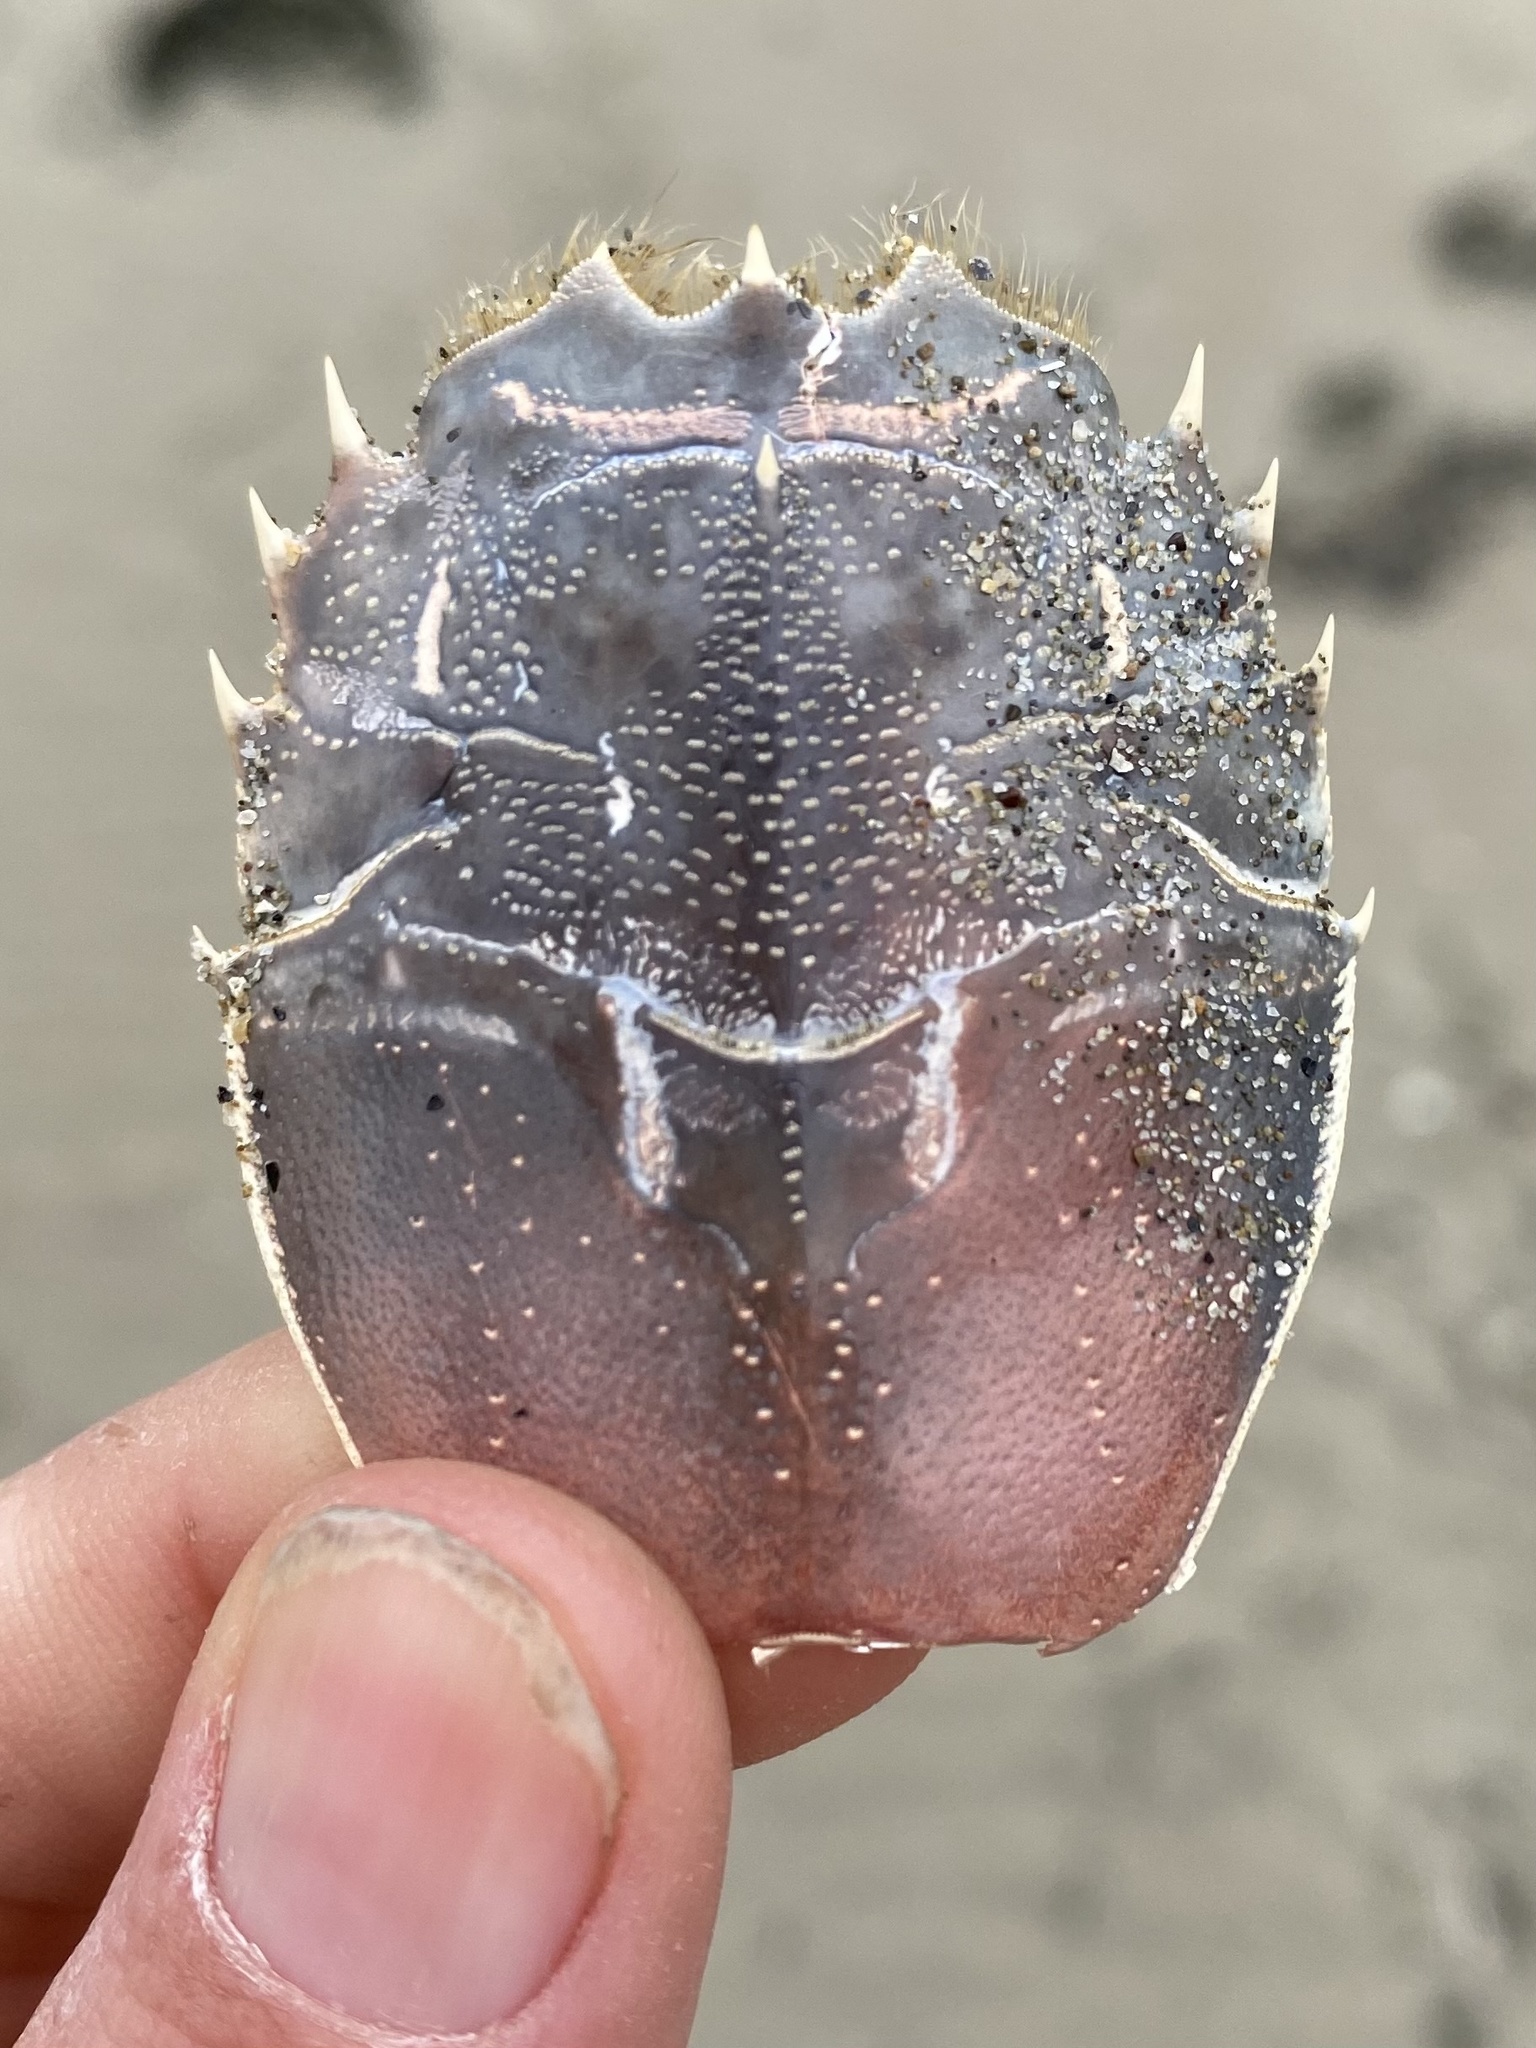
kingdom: Animalia
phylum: Arthropoda
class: Malacostraca
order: Decapoda
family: Blepharipodidae
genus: Blepharipoda
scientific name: Blepharipoda occidentalis
